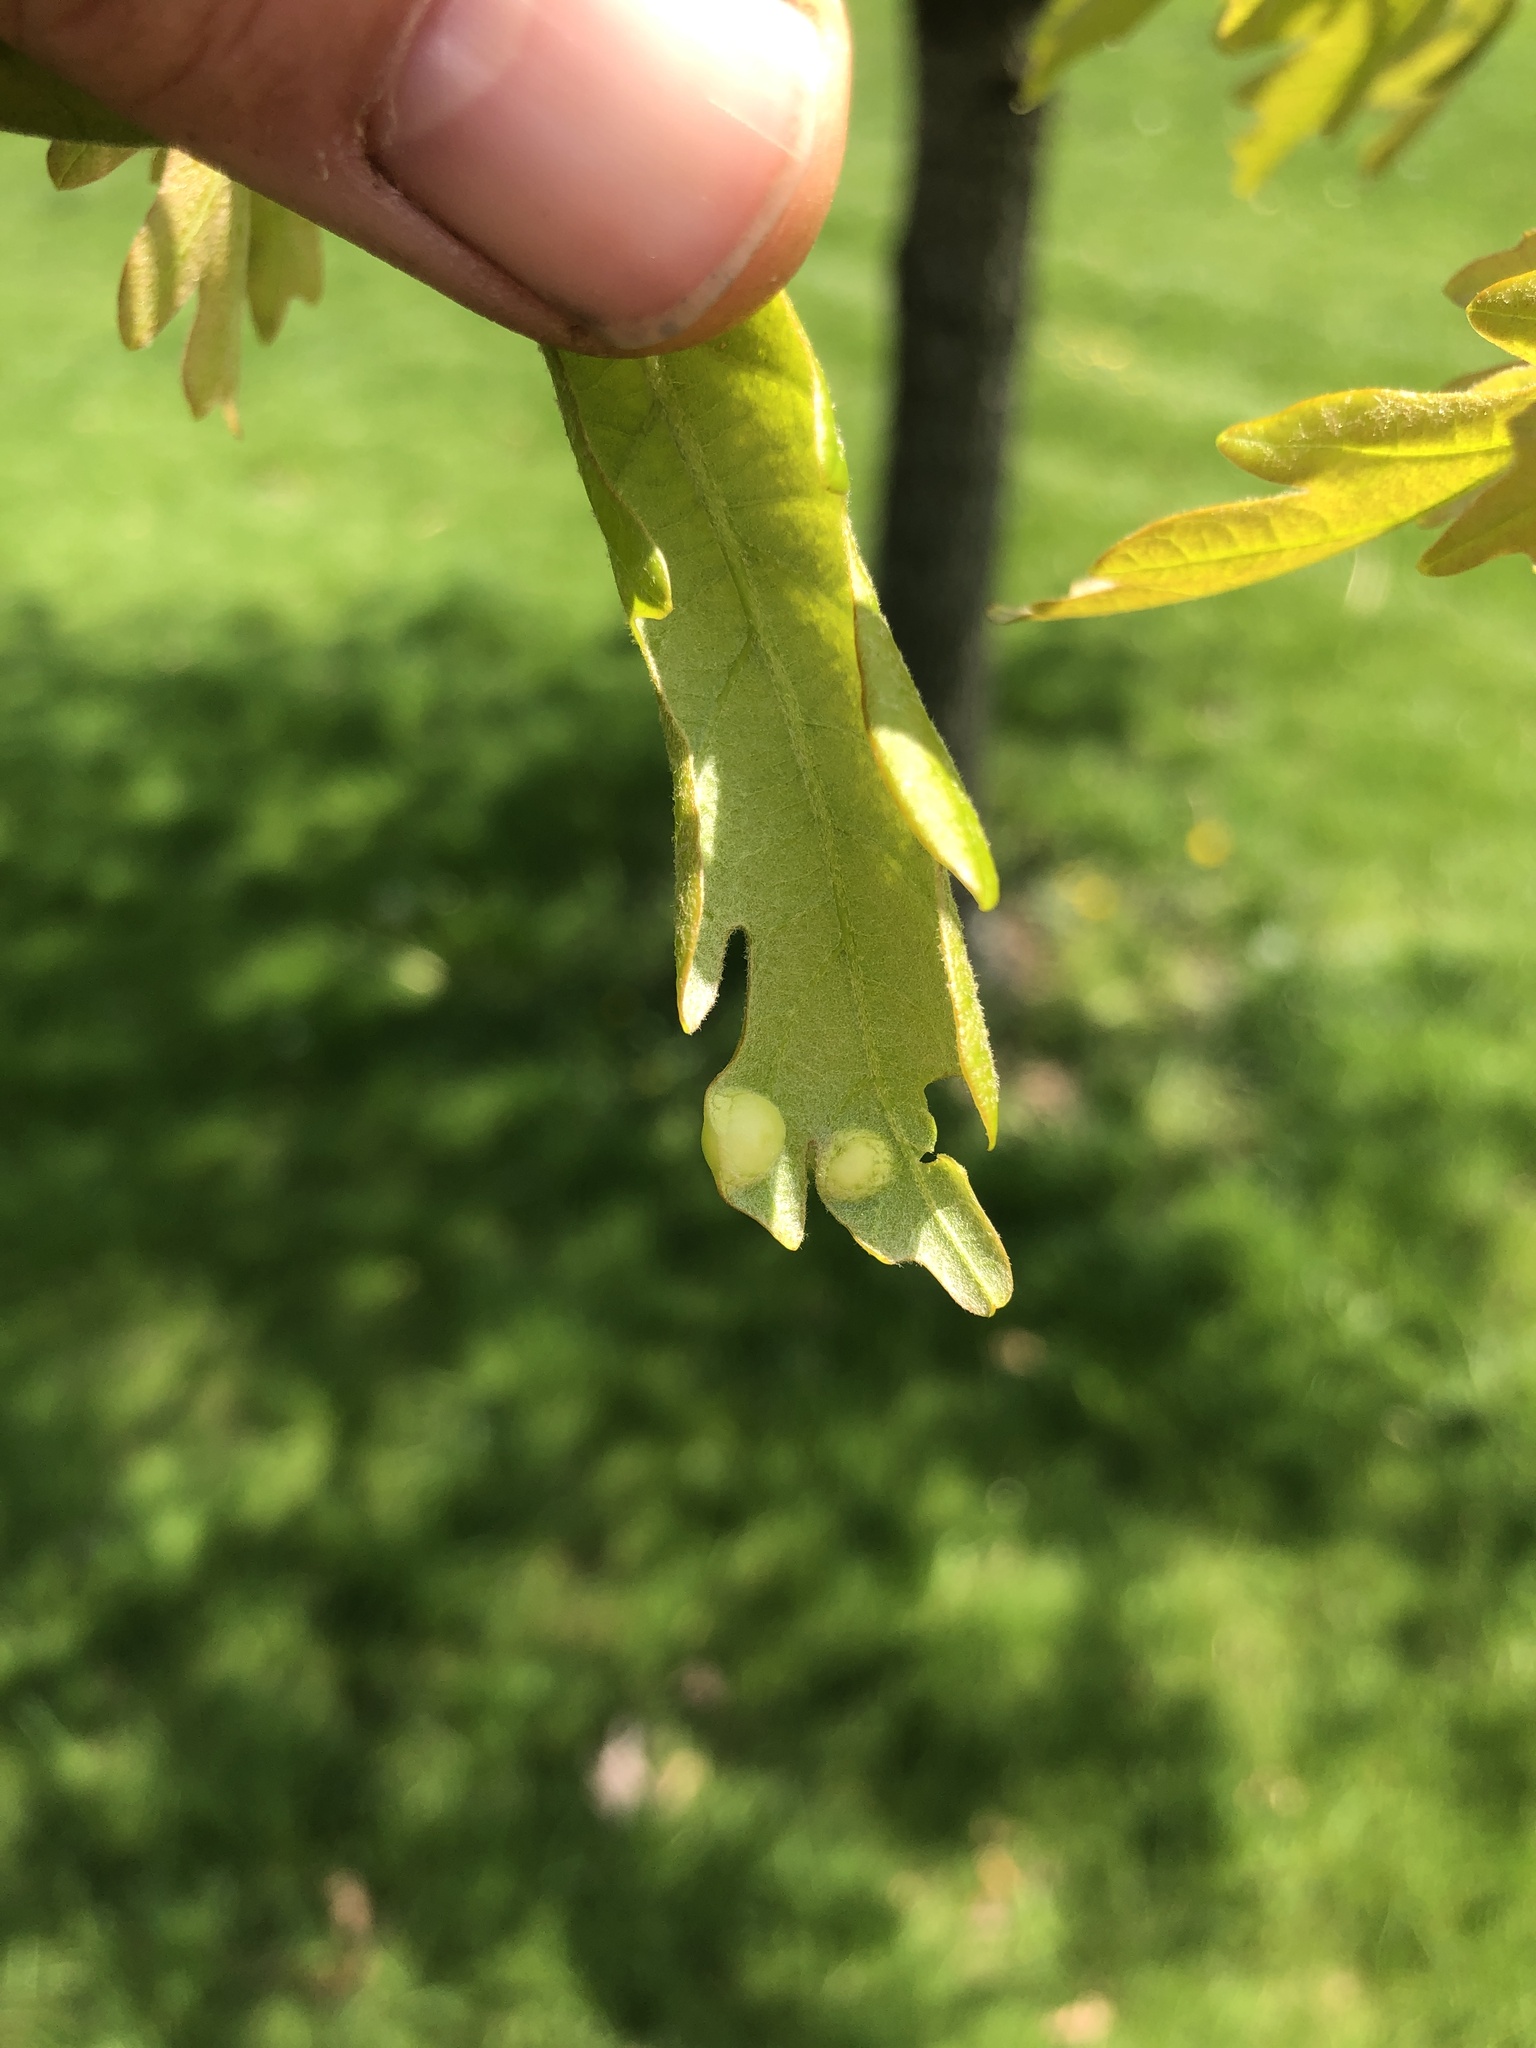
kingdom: Animalia
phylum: Arthropoda
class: Insecta
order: Hymenoptera
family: Cynipidae
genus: Callirhytis
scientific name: Callirhytis
